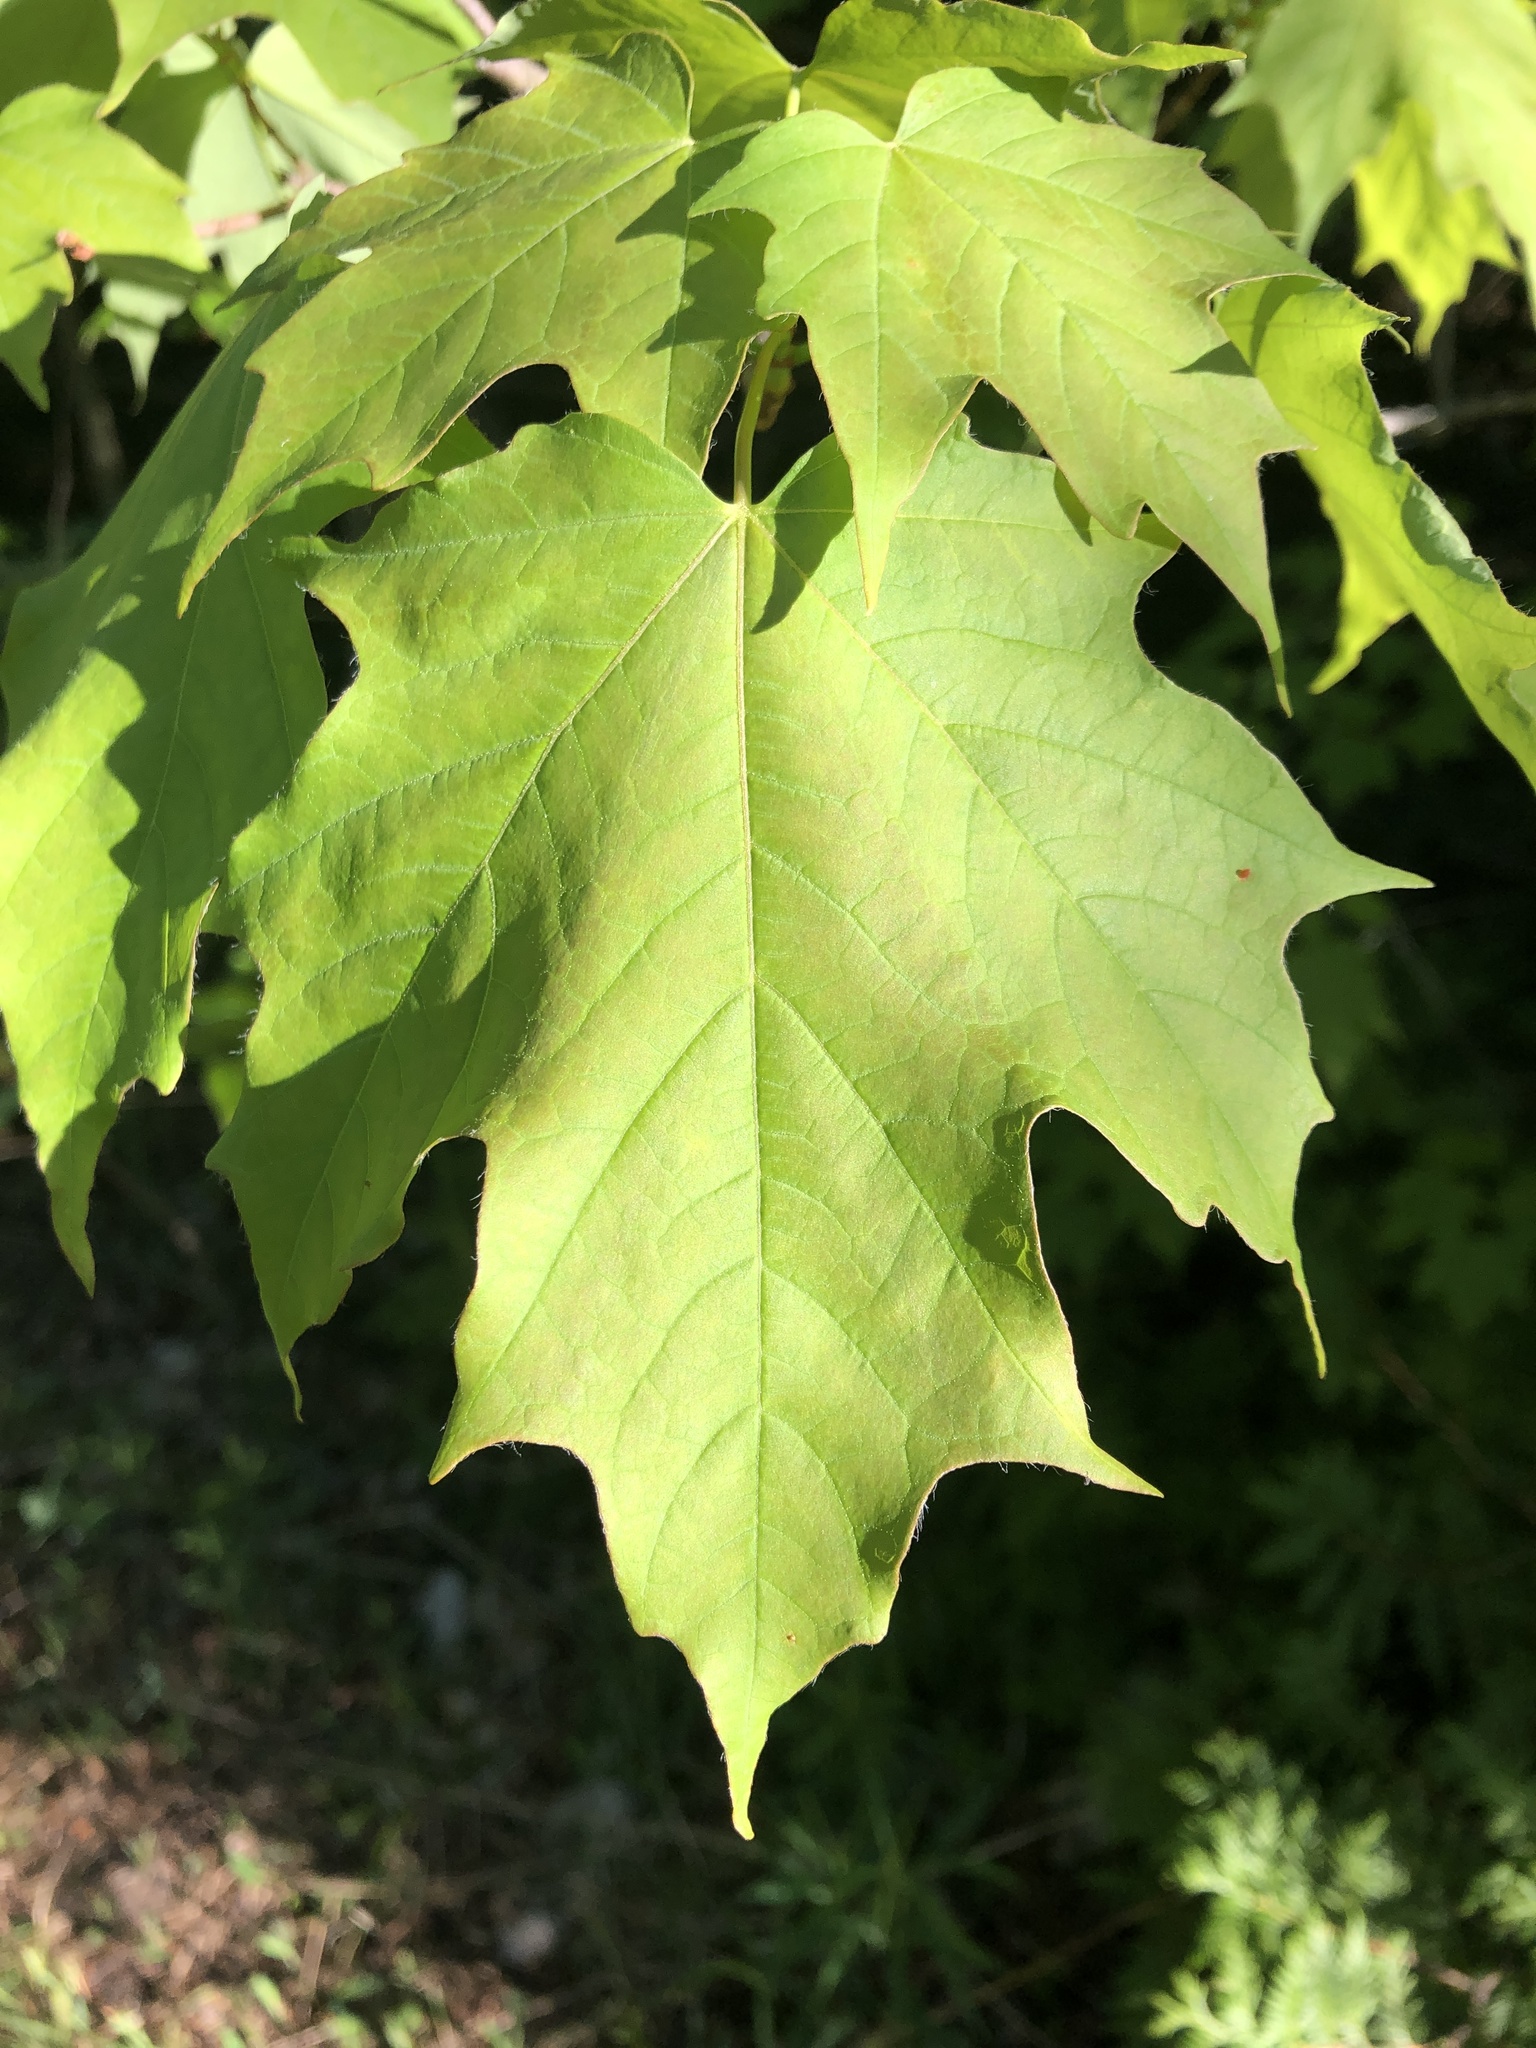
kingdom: Plantae
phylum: Tracheophyta
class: Magnoliopsida
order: Sapindales
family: Sapindaceae
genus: Acer
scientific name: Acer saccharum
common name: Sugar maple
